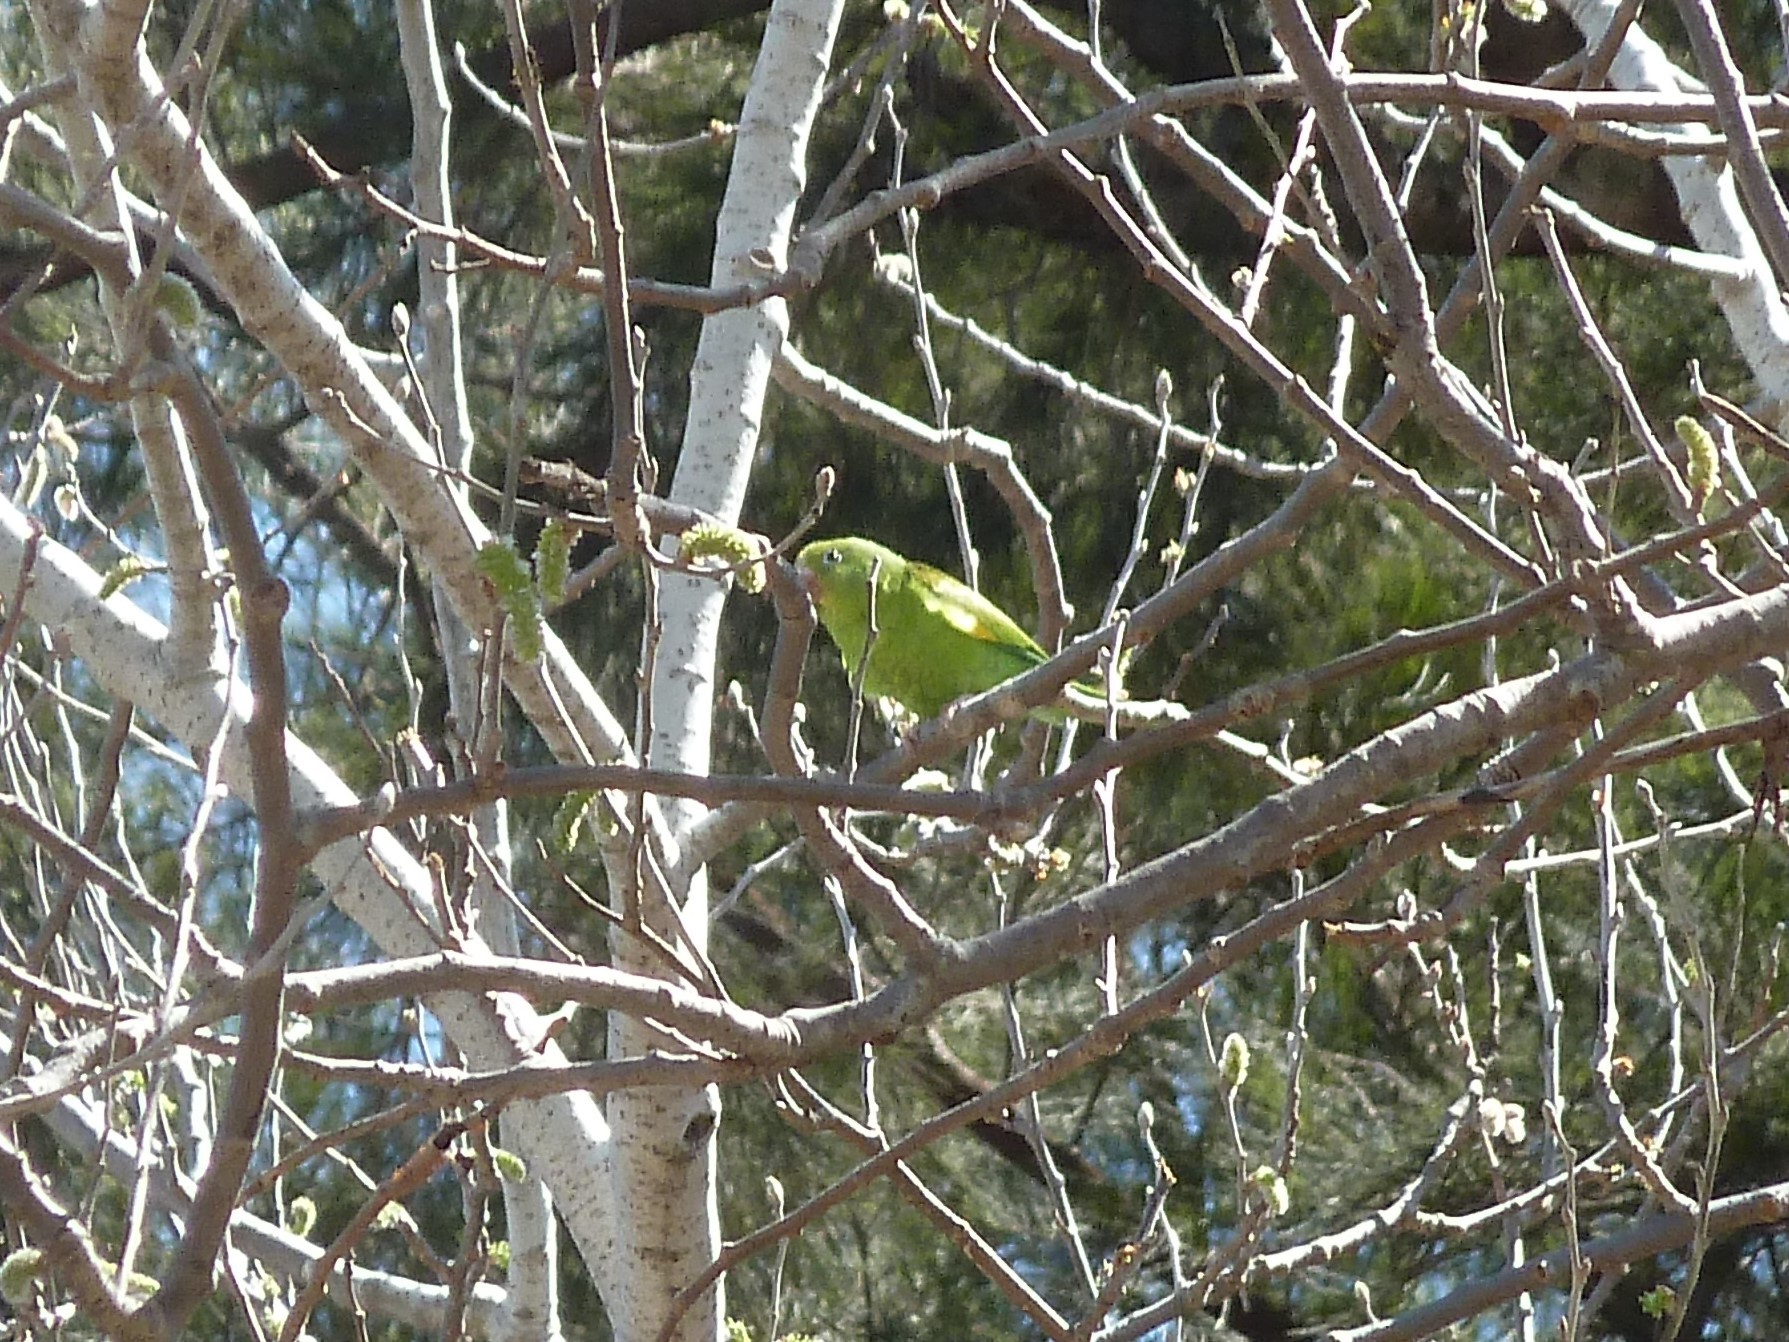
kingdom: Animalia
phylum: Chordata
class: Aves
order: Psittaciformes
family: Psittacidae
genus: Brotogeris
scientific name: Brotogeris chiriri
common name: Yellow-chevroned parakeet
